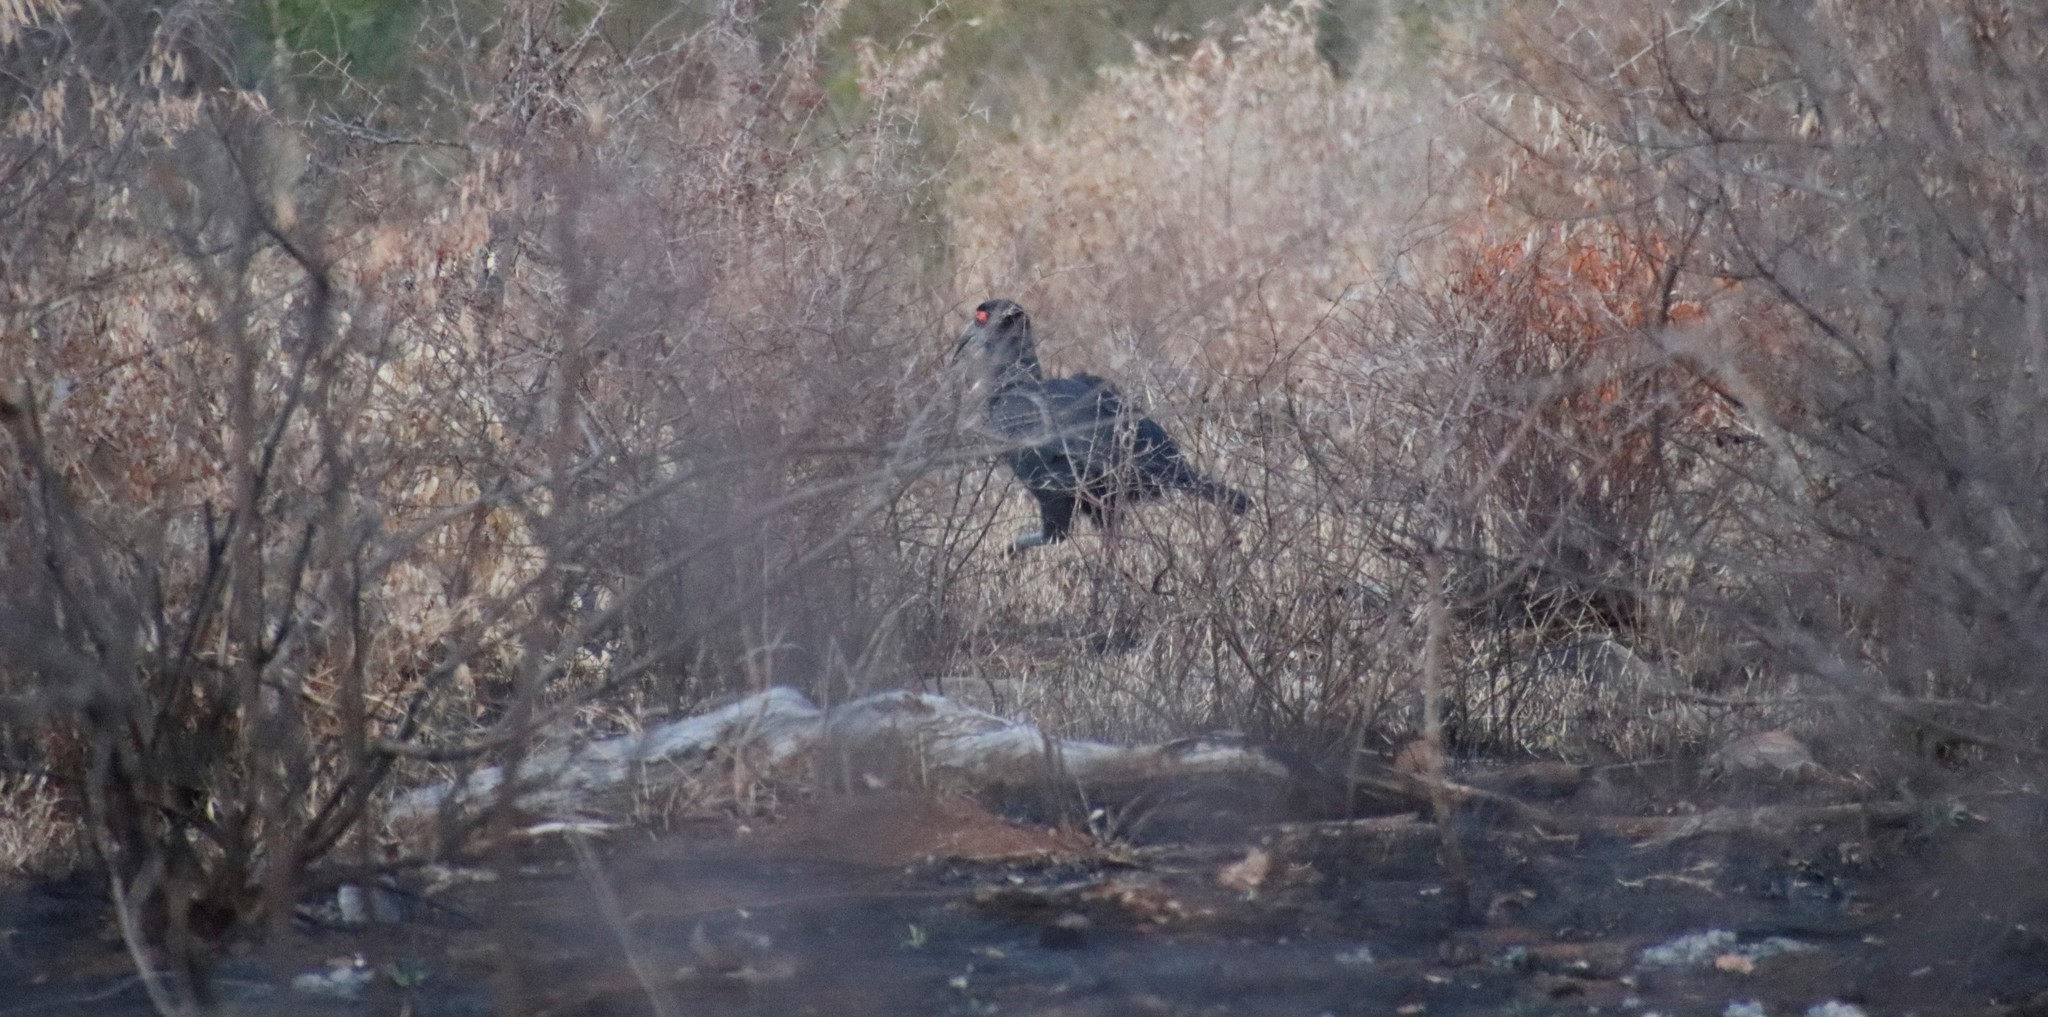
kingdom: Animalia
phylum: Chordata
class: Aves
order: Bucerotiformes
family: Bucorvidae
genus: Bucorvus
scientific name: Bucorvus leadbeateri
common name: Southern ground-hornbill
